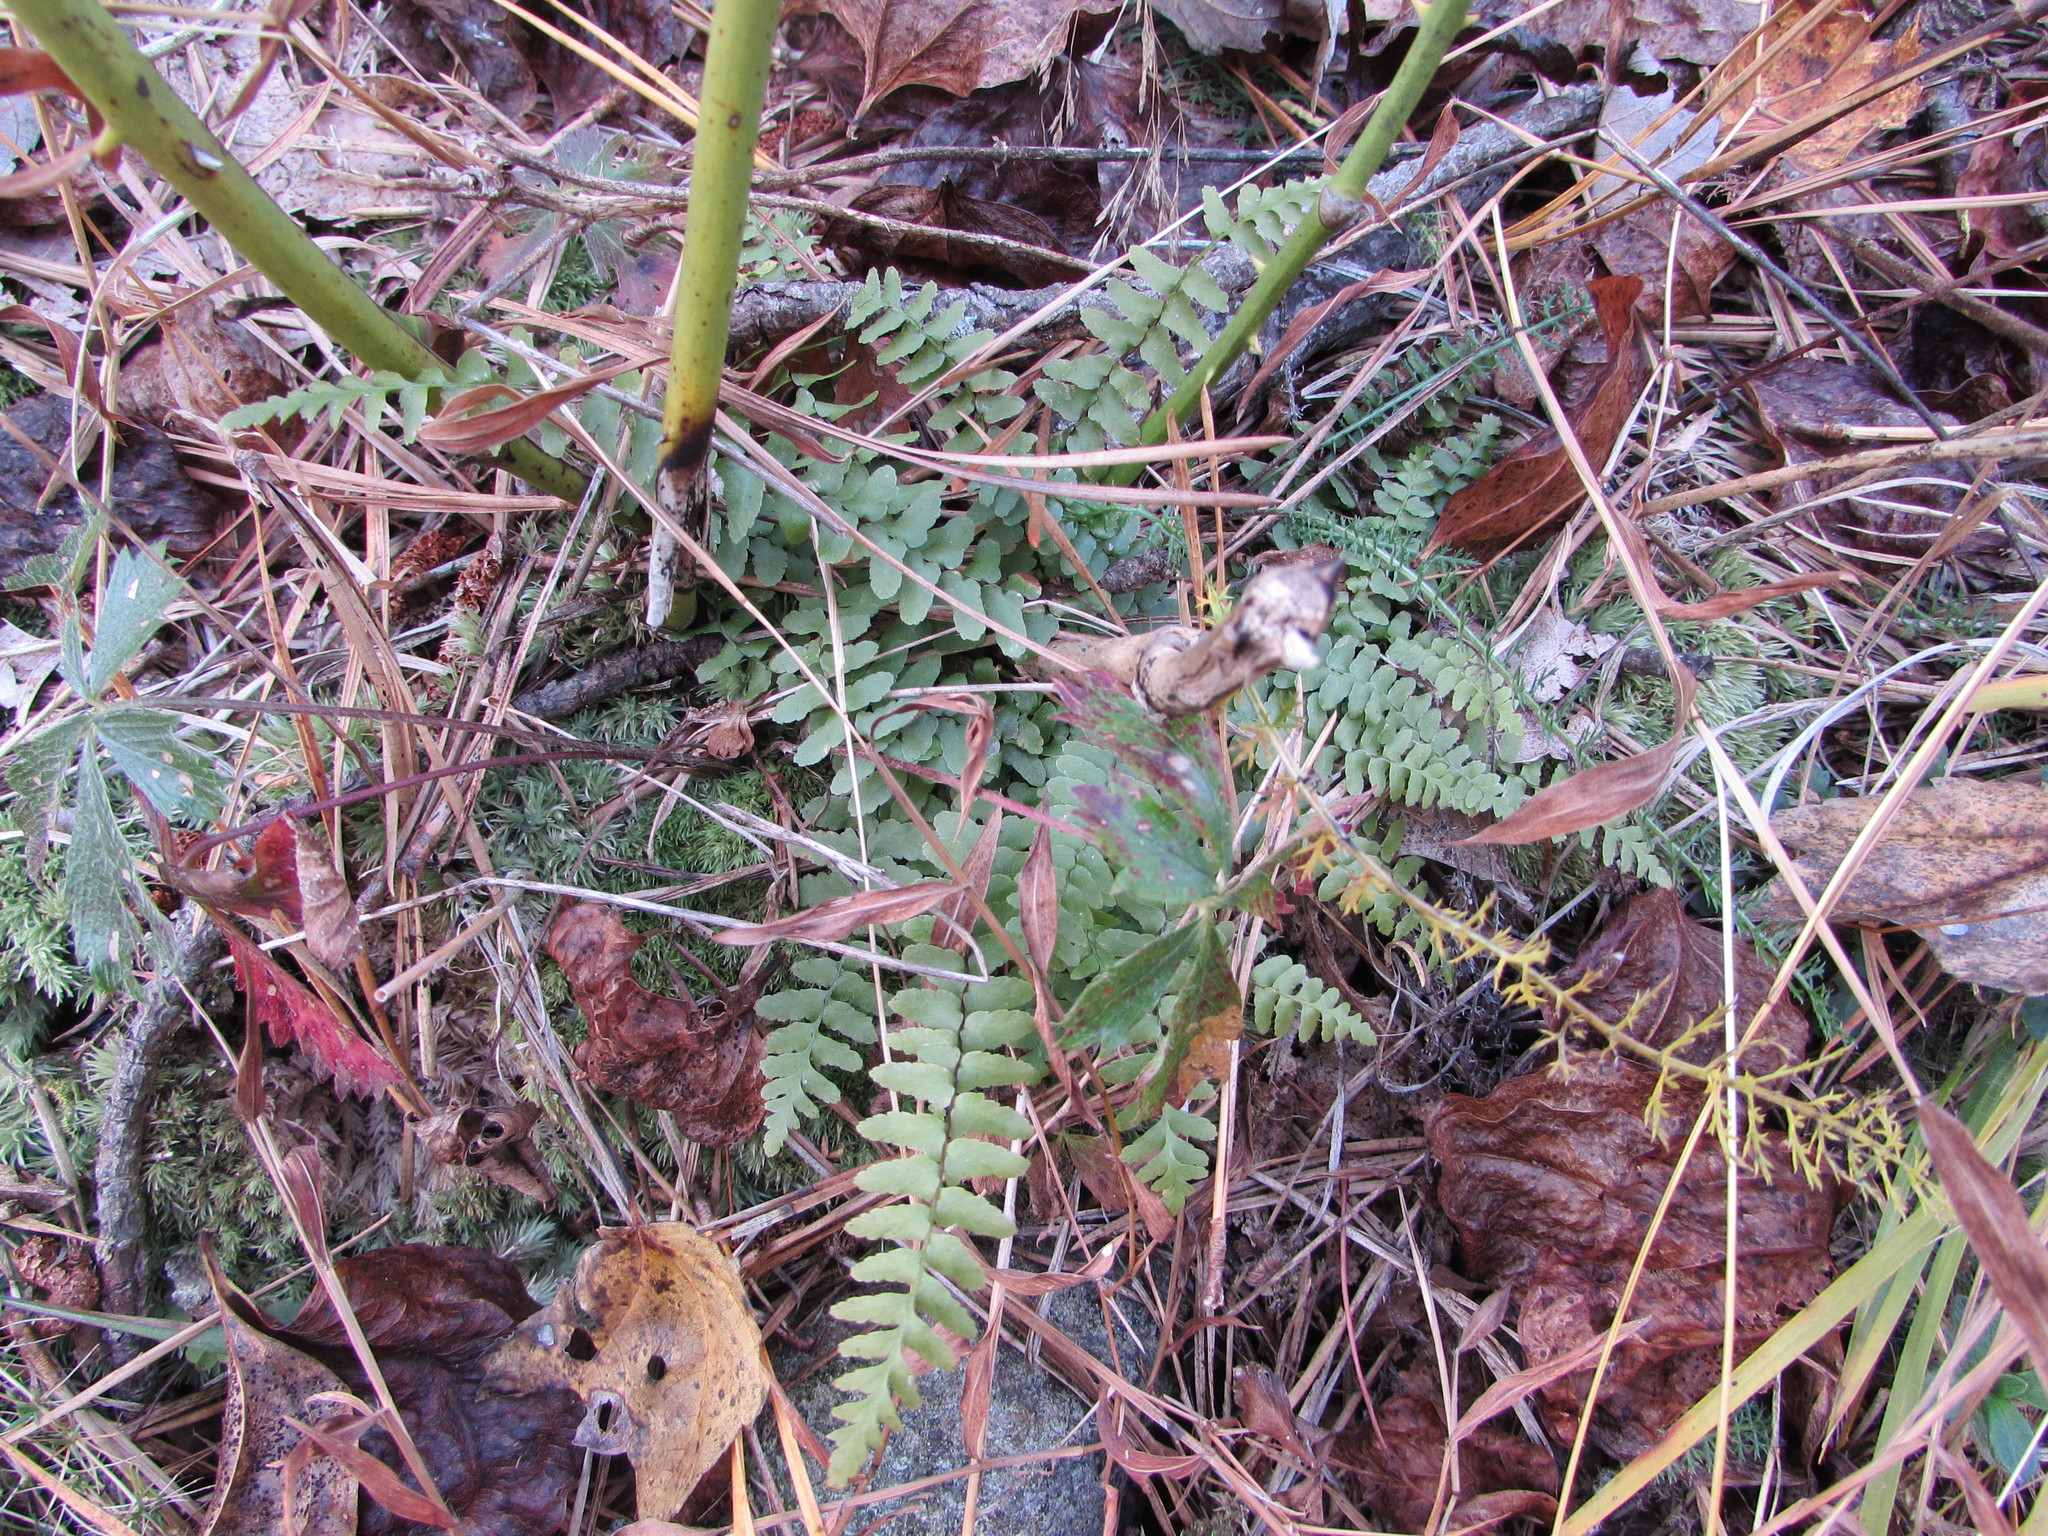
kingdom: Plantae
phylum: Tracheophyta
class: Polypodiopsida
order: Polypodiales
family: Aspleniaceae
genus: Asplenium
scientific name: Asplenium platyneuron
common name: Ebony spleenwort
